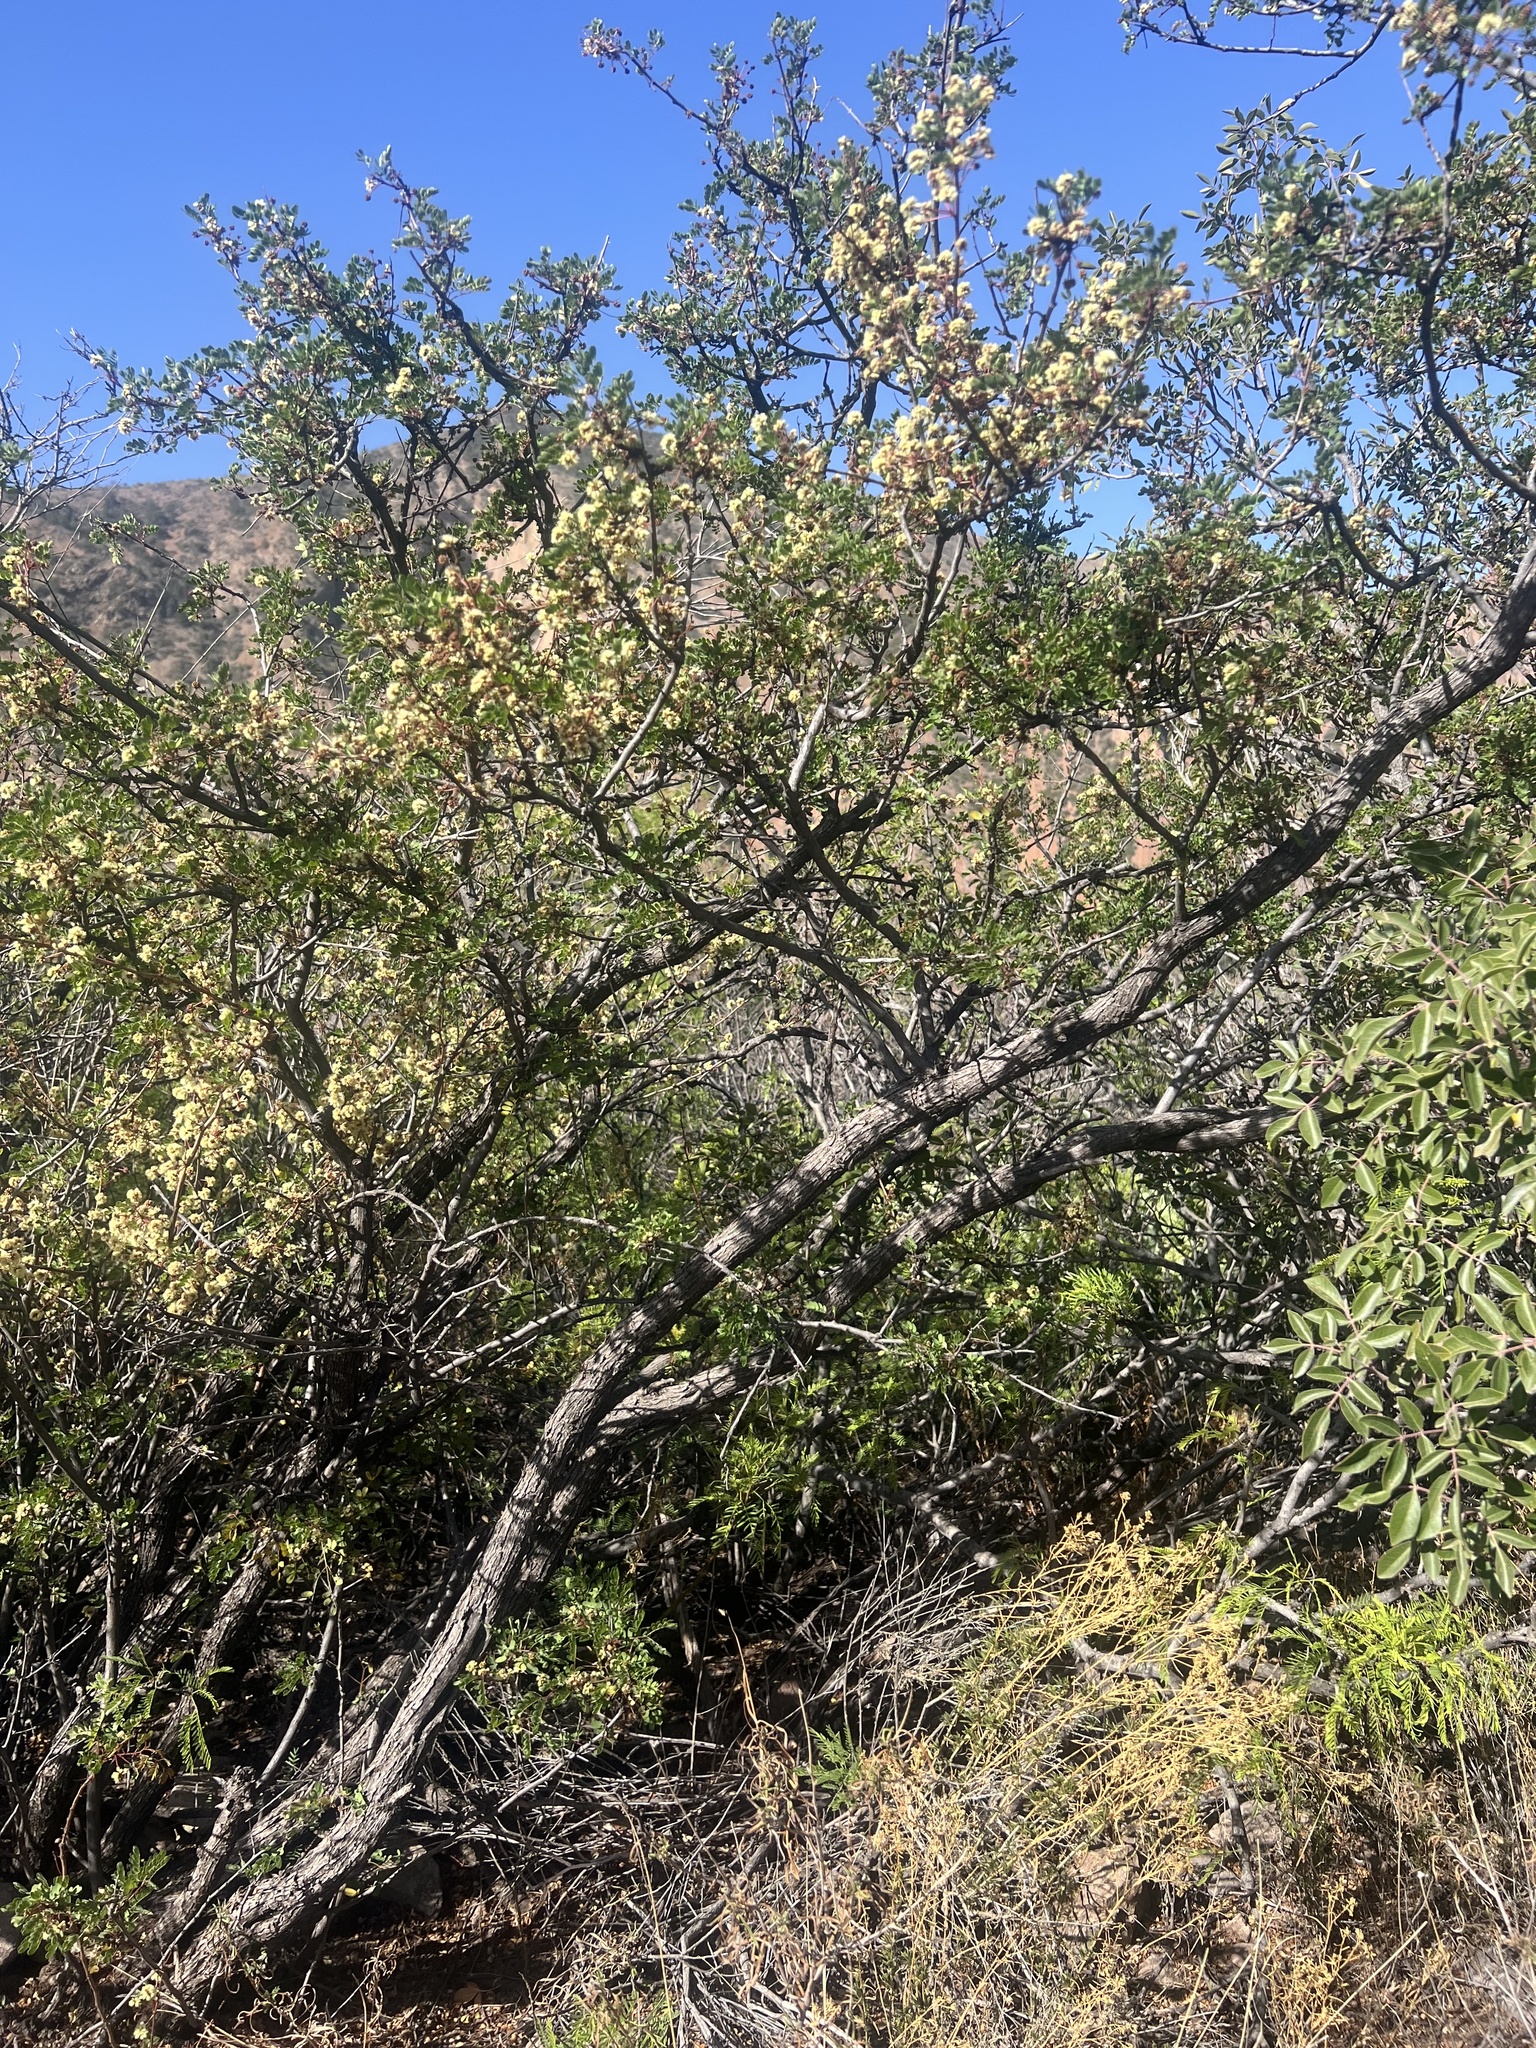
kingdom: Plantae
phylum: Tracheophyta
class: Magnoliopsida
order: Fabales
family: Fabaceae
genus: Senegalia
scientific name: Senegalia roemeriana
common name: Roemer's acacia
